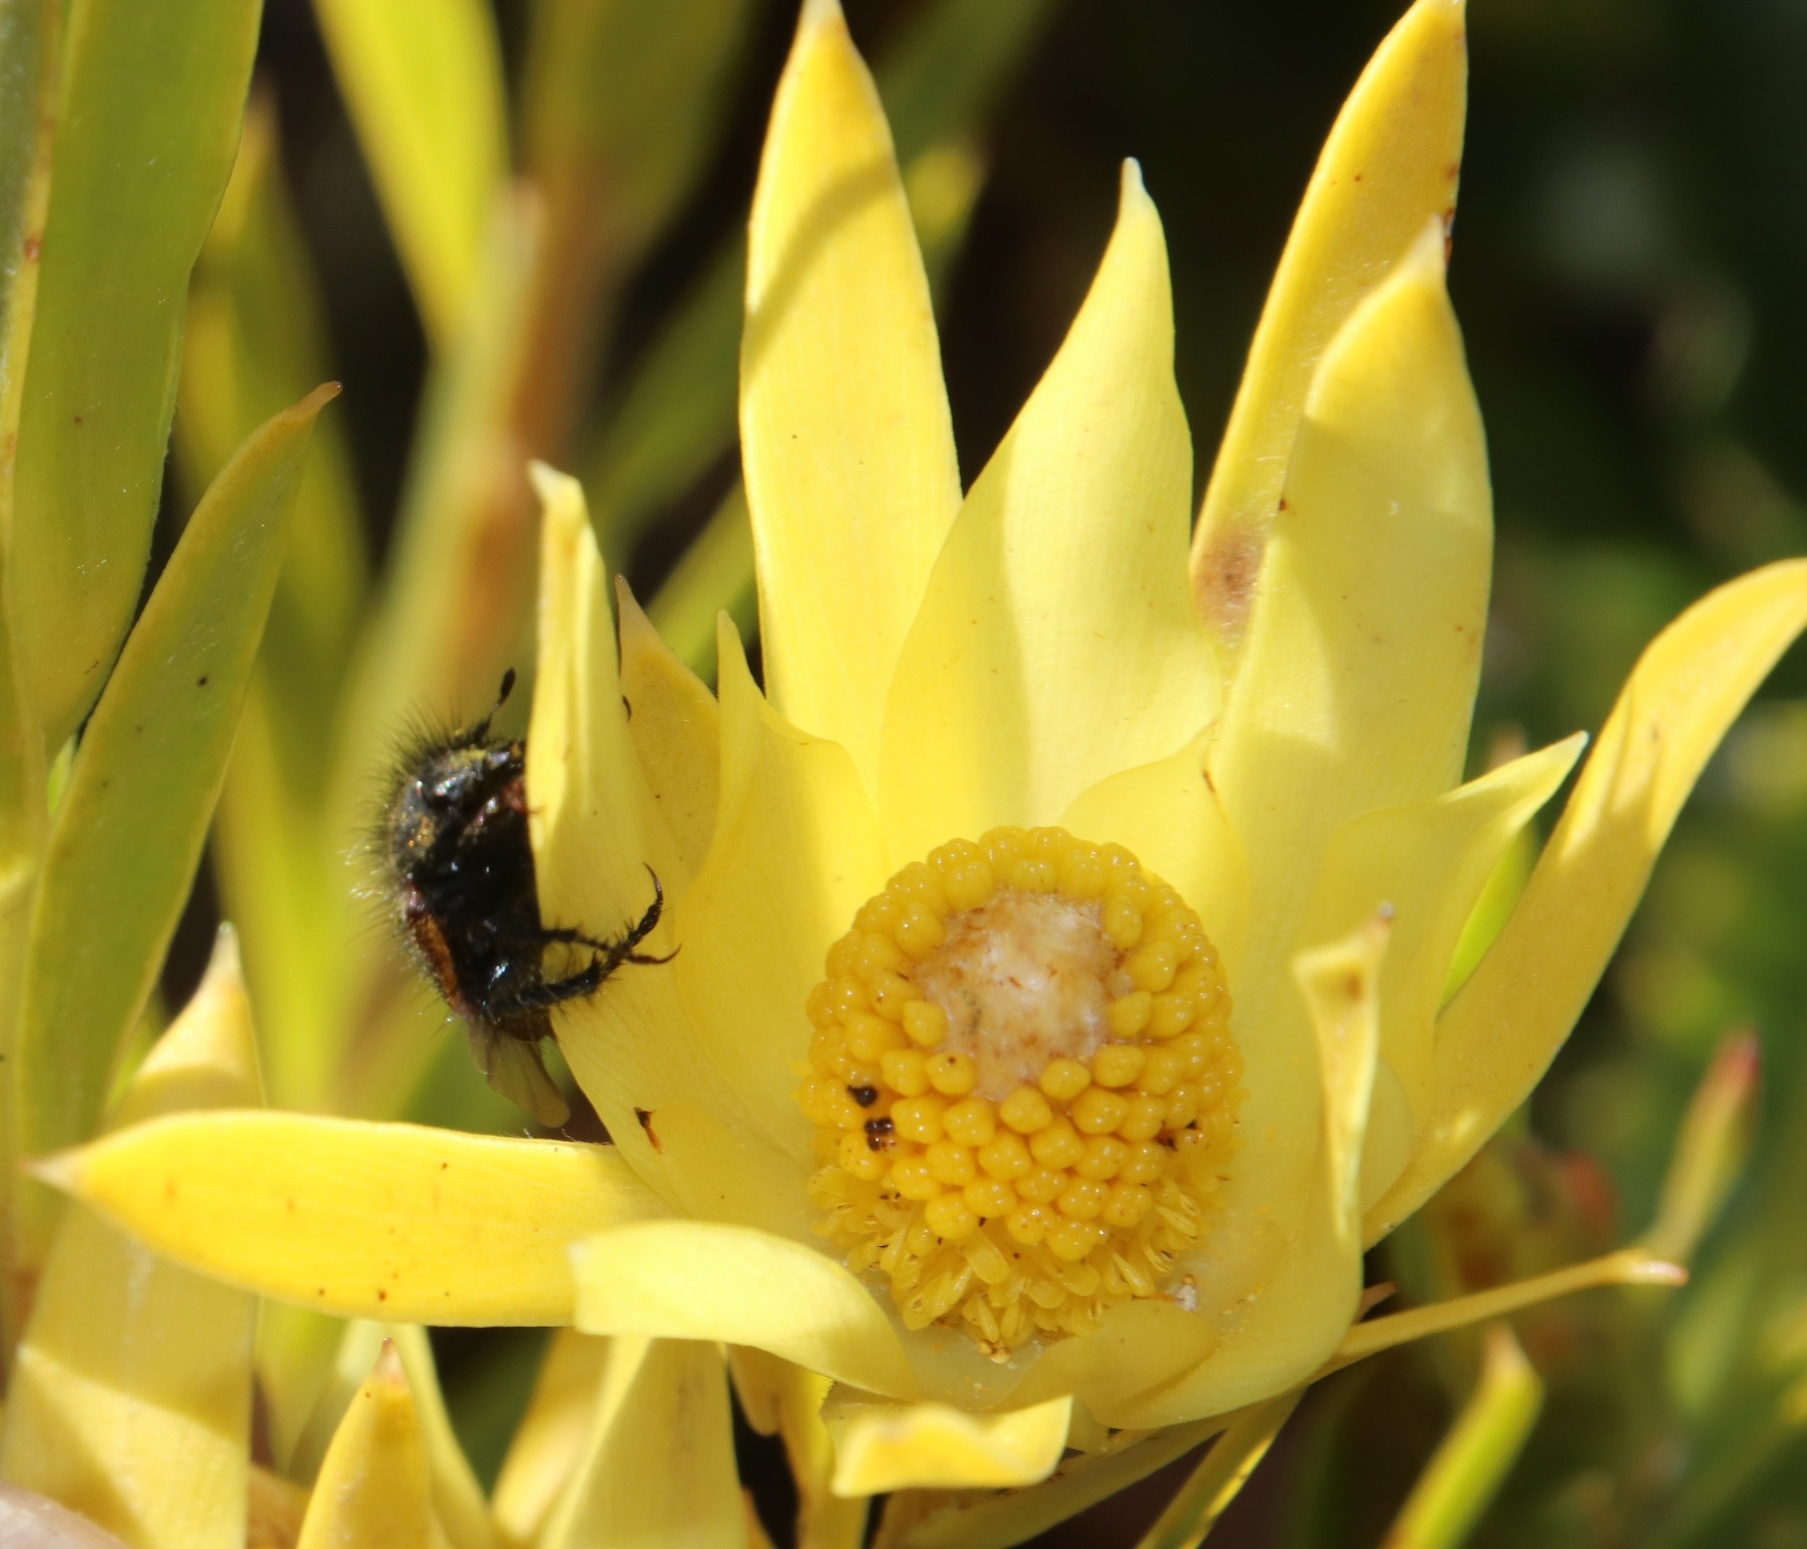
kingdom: Plantae
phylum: Tracheophyta
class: Magnoliopsida
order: Proteales
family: Proteaceae
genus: Leucadendron
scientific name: Leucadendron xanthoconus
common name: Sickle-leaf conebush
